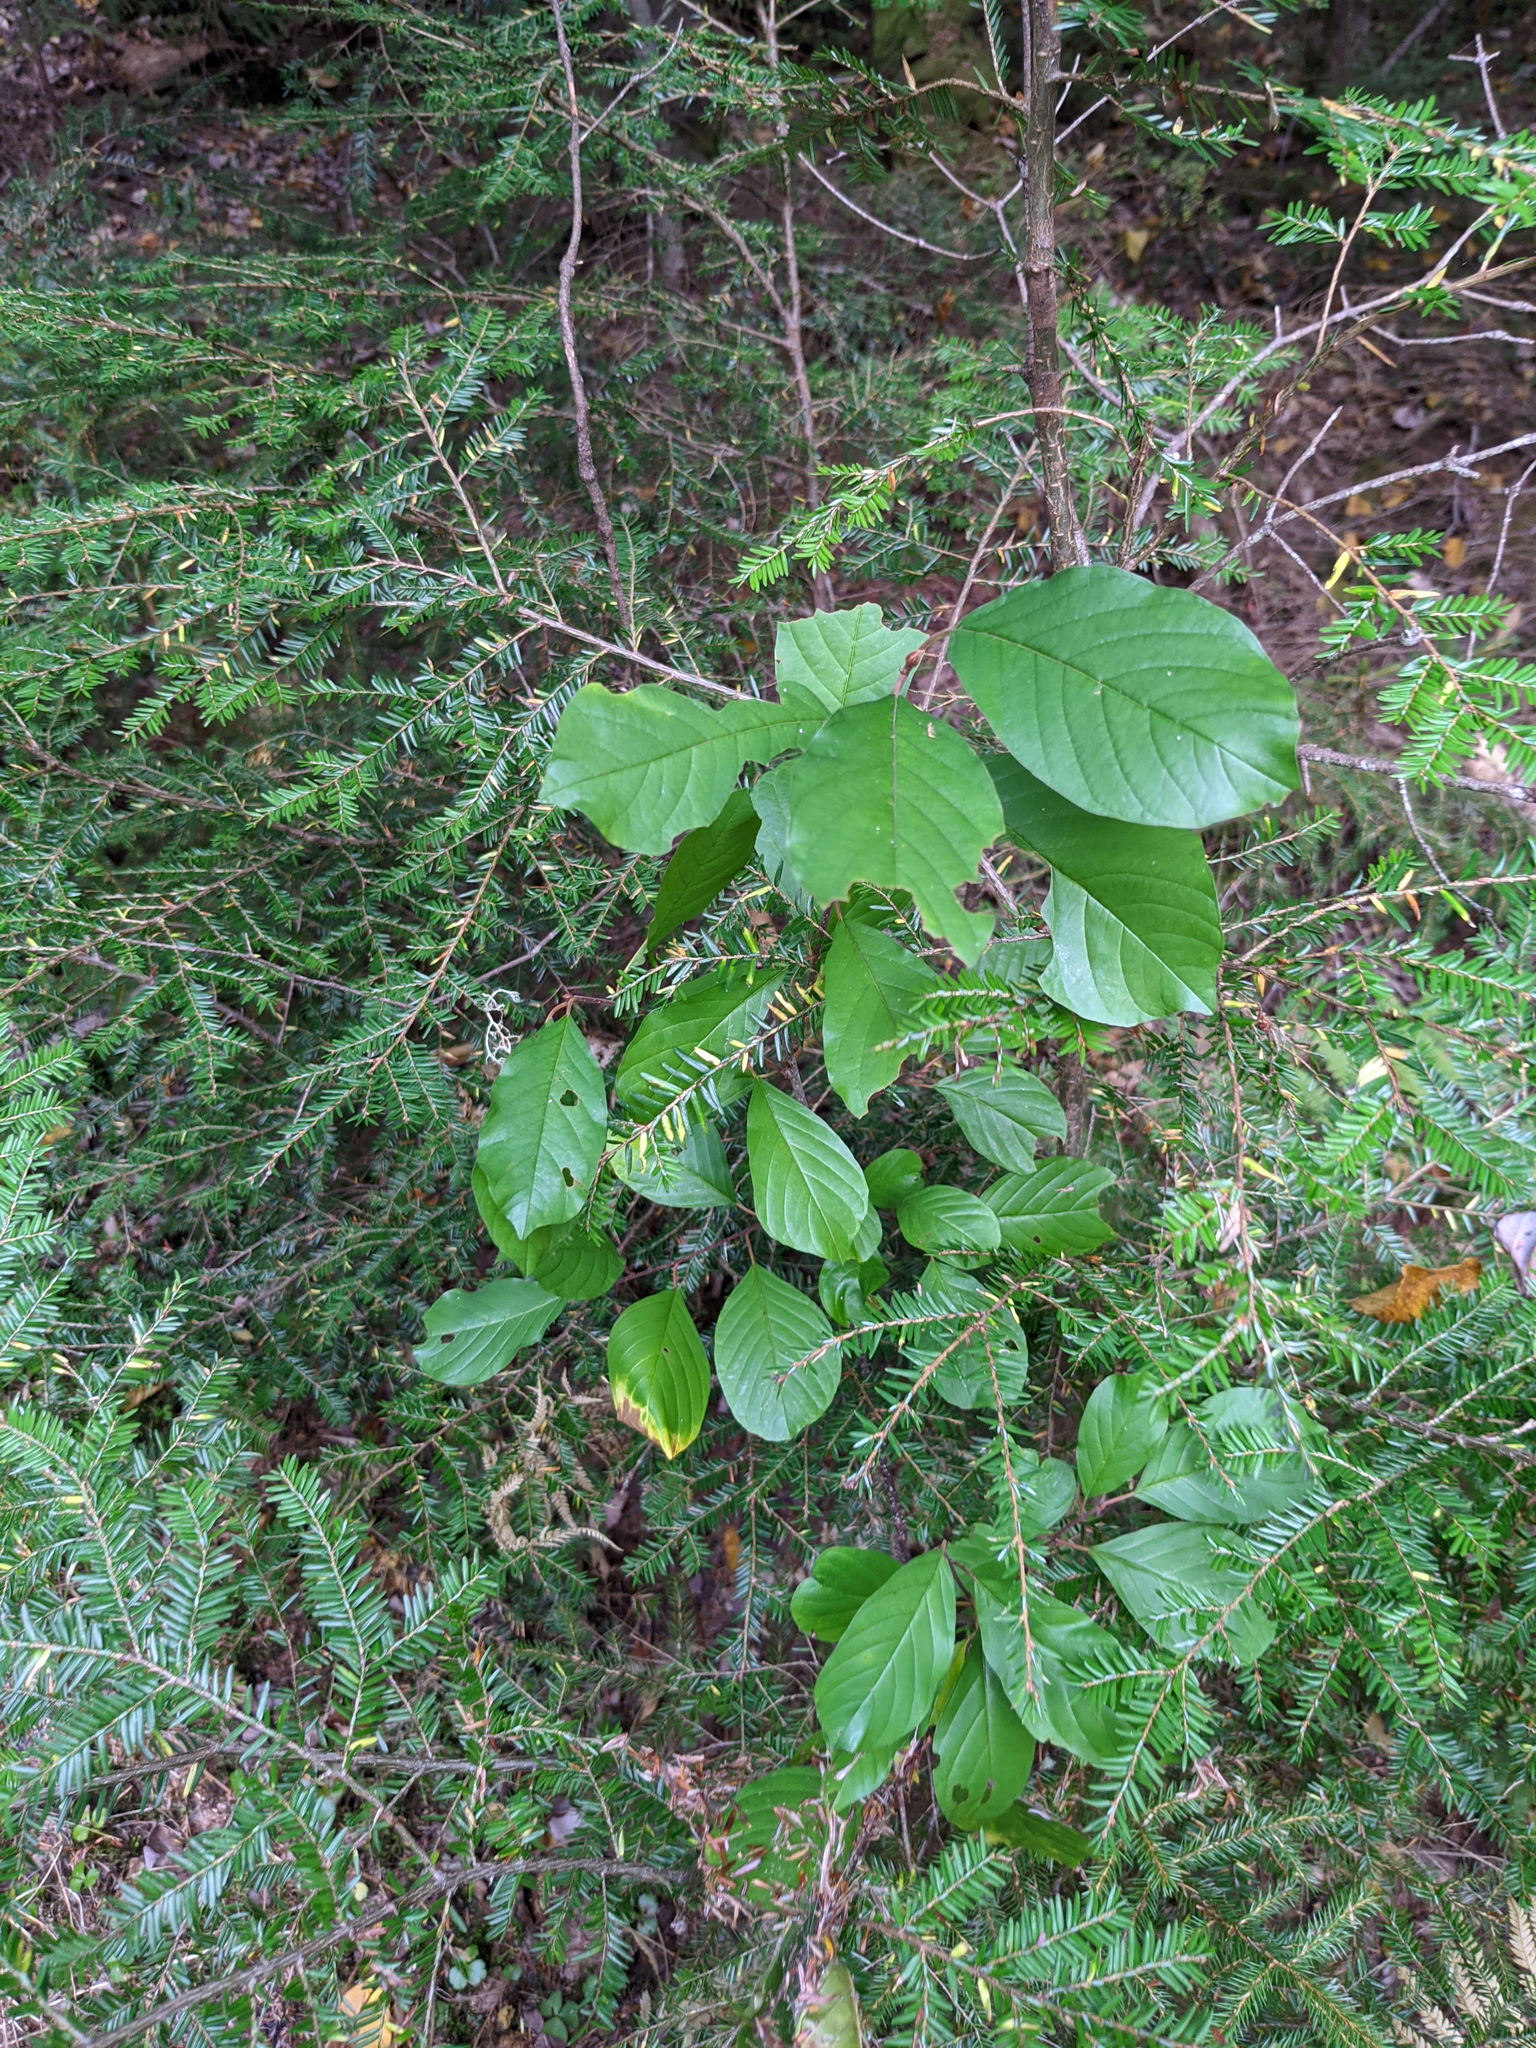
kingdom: Plantae
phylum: Tracheophyta
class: Magnoliopsida
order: Rosales
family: Rhamnaceae
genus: Frangula
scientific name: Frangula alnus
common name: Alder buckthorn
